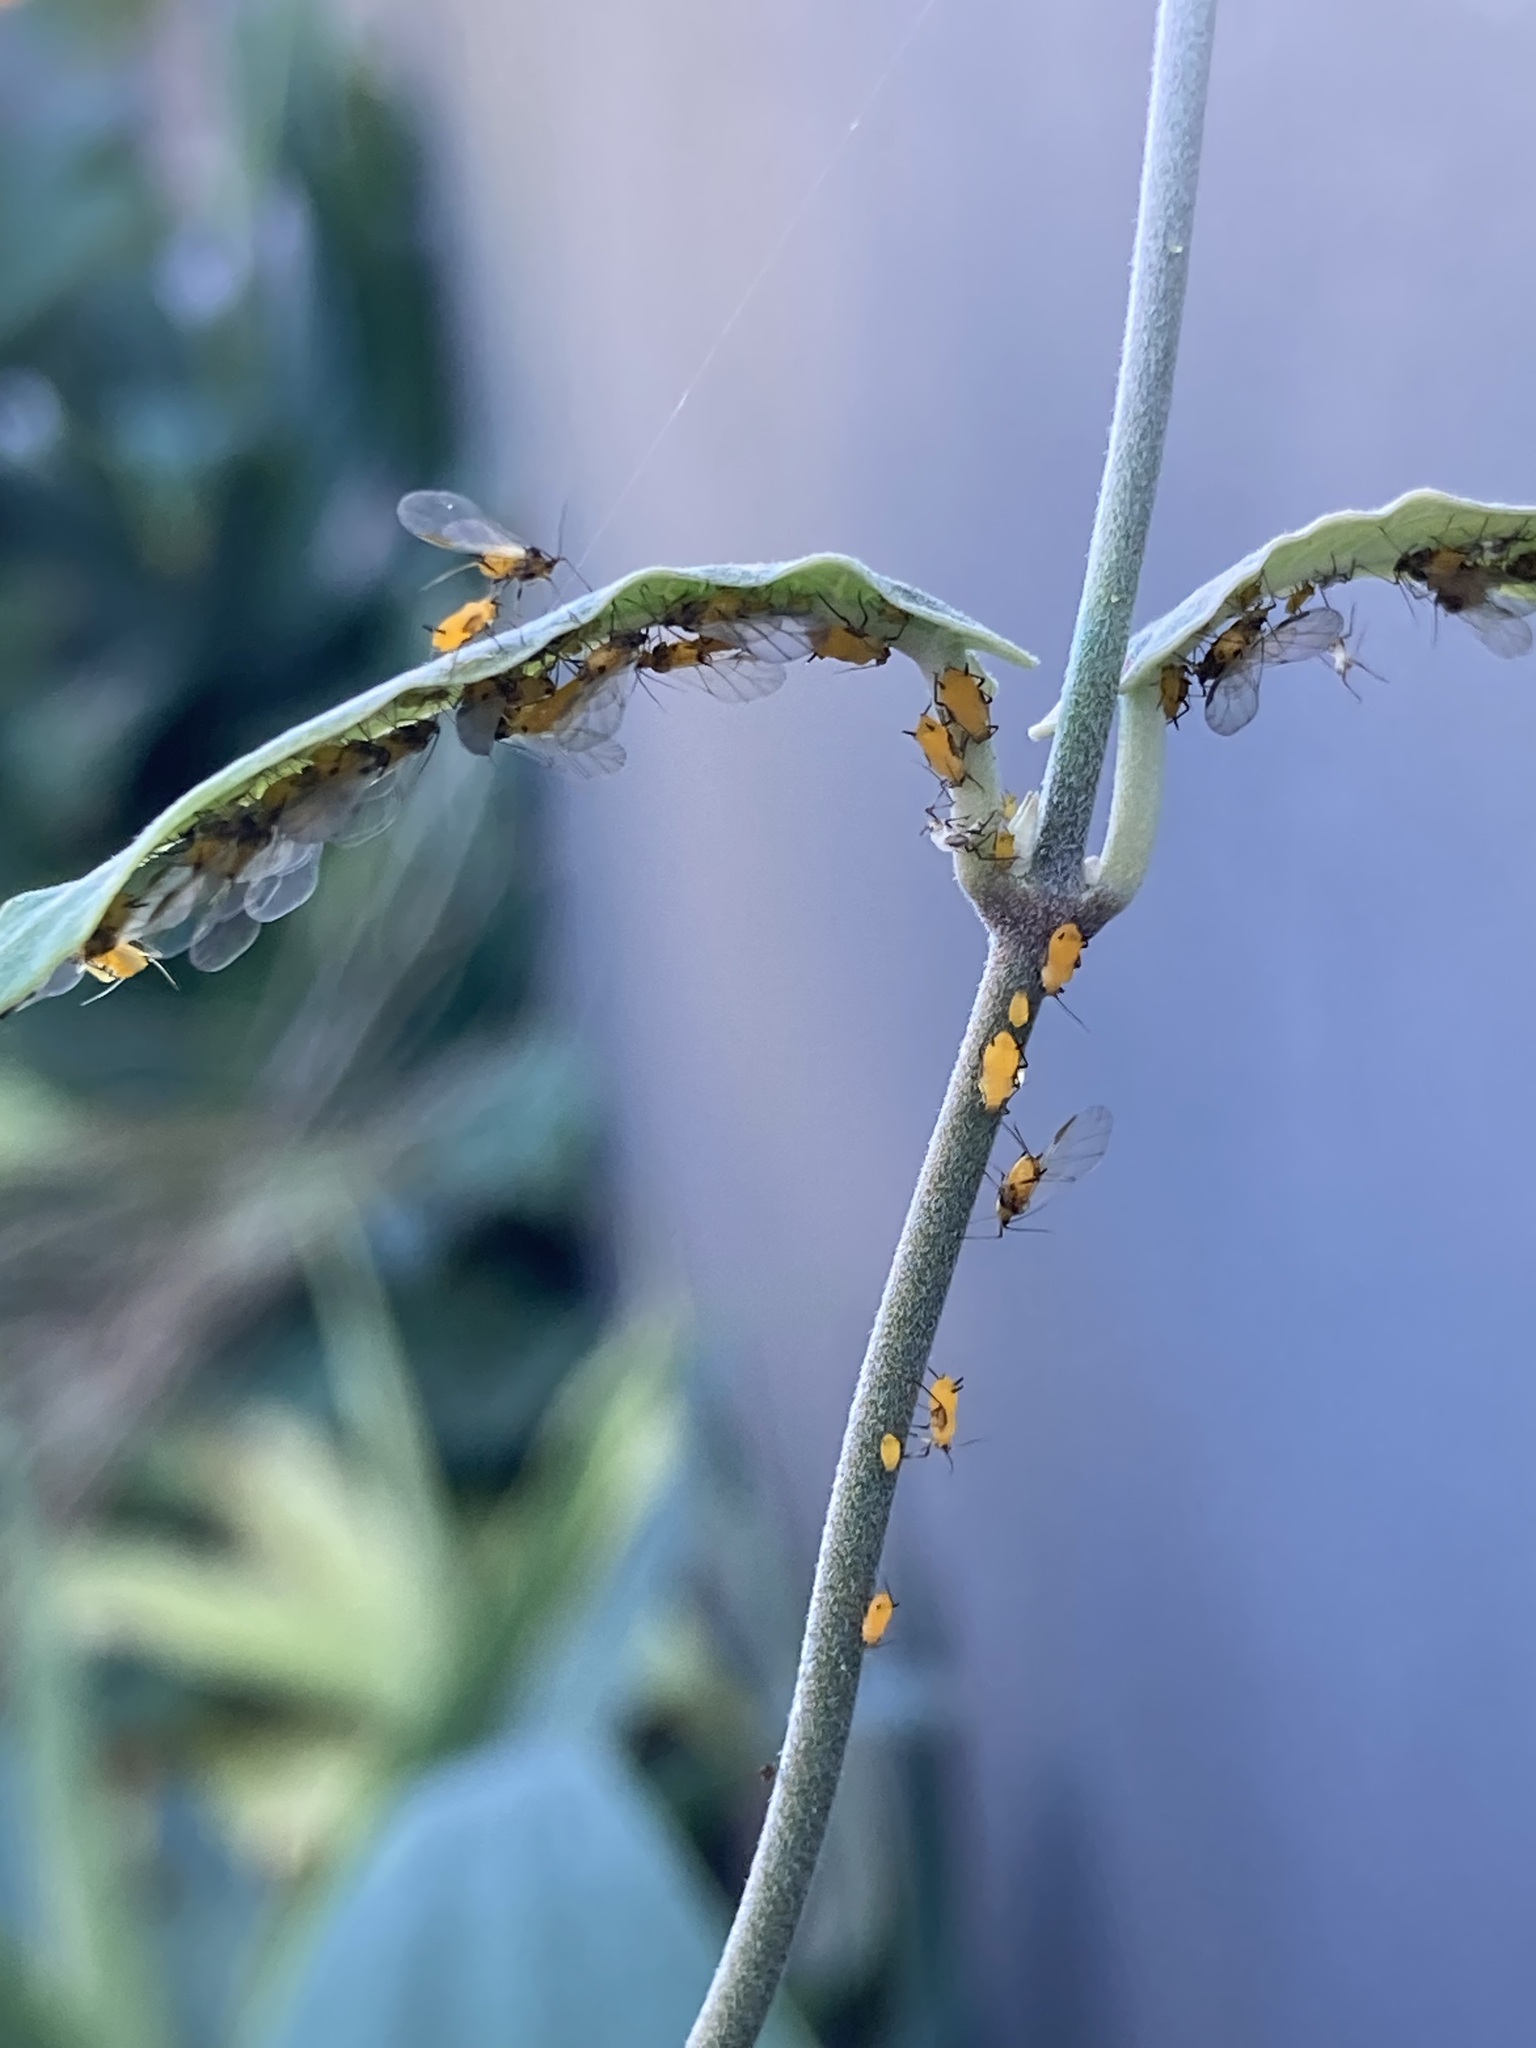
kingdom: Animalia
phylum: Arthropoda
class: Insecta
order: Hemiptera
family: Aphididae
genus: Aphis
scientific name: Aphis nerii
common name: Oleander aphid
